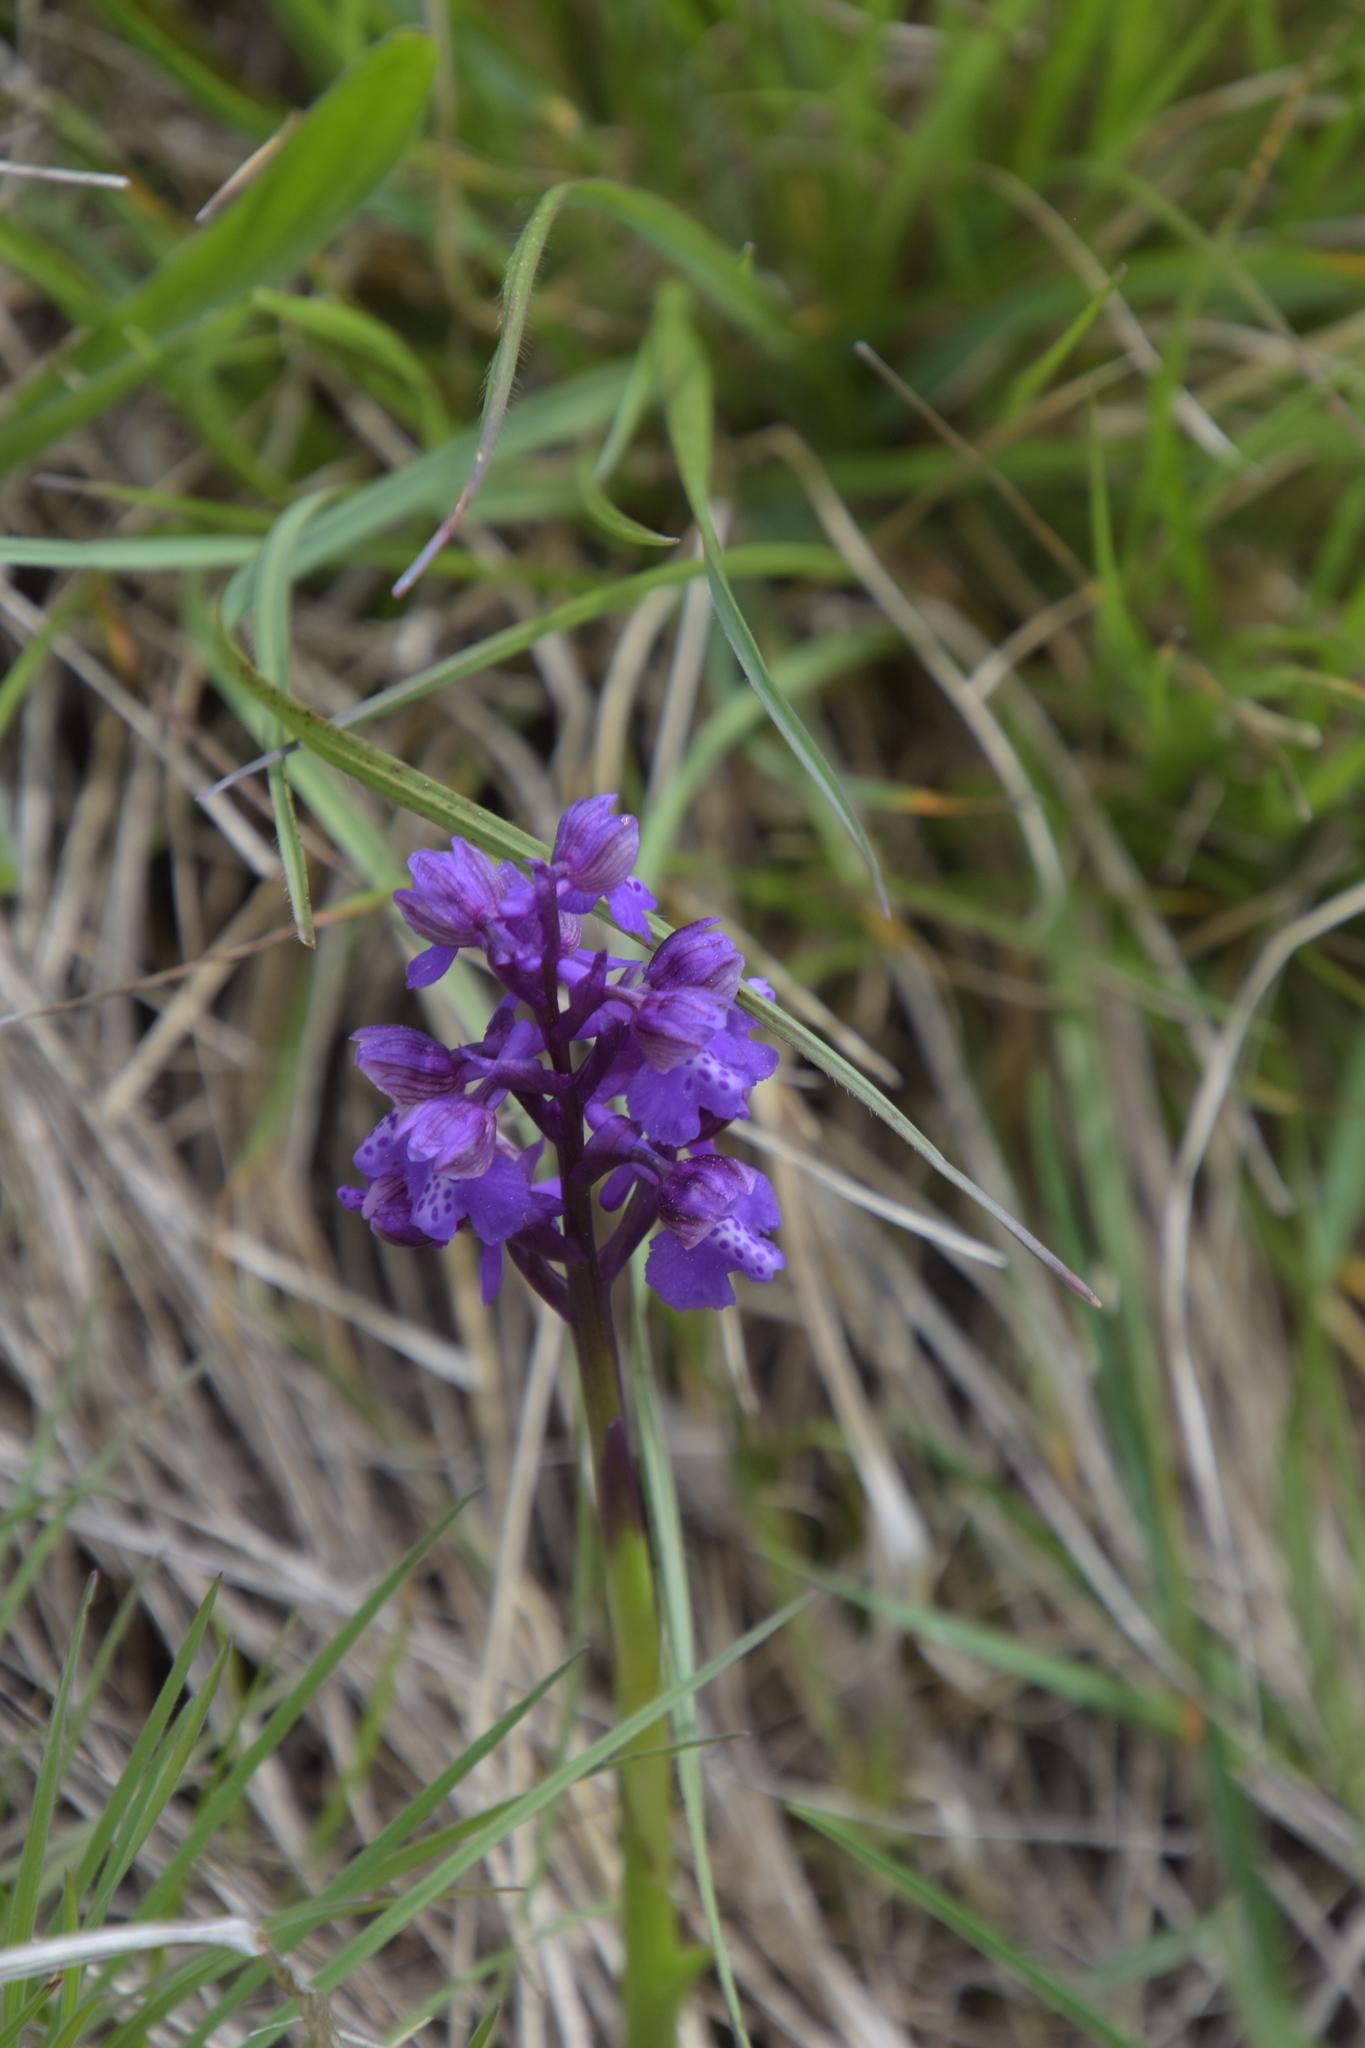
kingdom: Plantae
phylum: Tracheophyta
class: Liliopsida
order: Asparagales
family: Orchidaceae
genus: Anacamptis
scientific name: Anacamptis morio
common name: Green-winged orchid
